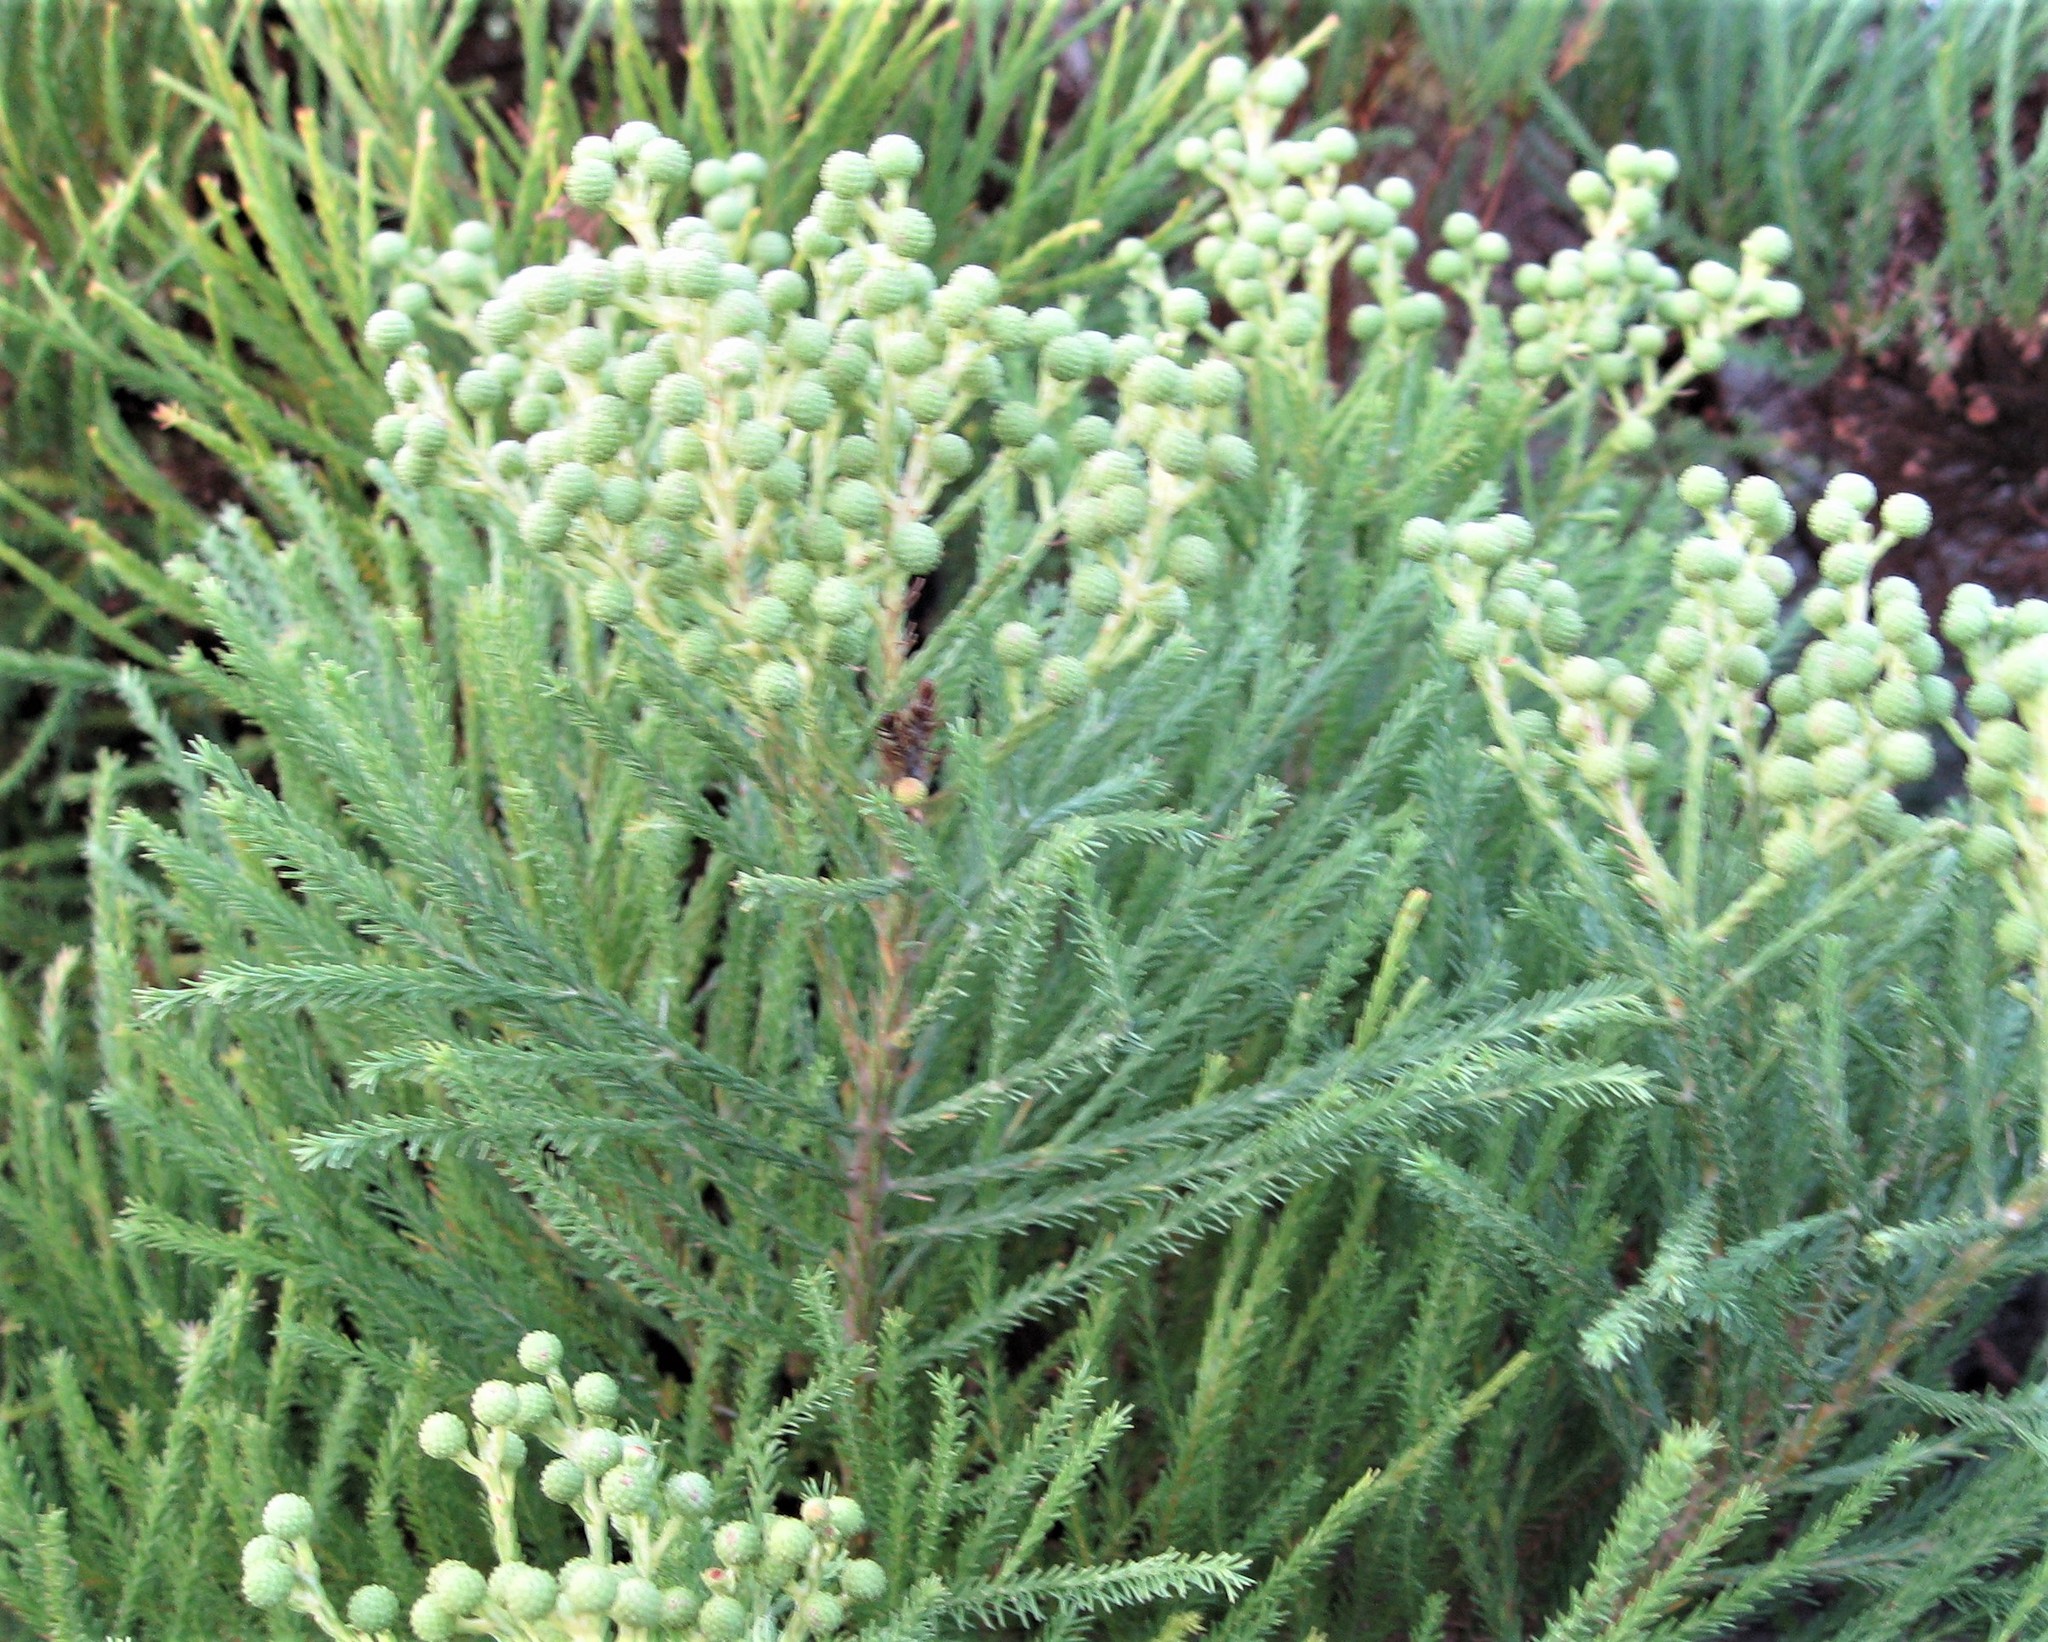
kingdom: Plantae
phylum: Tracheophyta
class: Magnoliopsida
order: Bruniales
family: Bruniaceae
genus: Berzelia
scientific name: Berzelia lanuginosa
